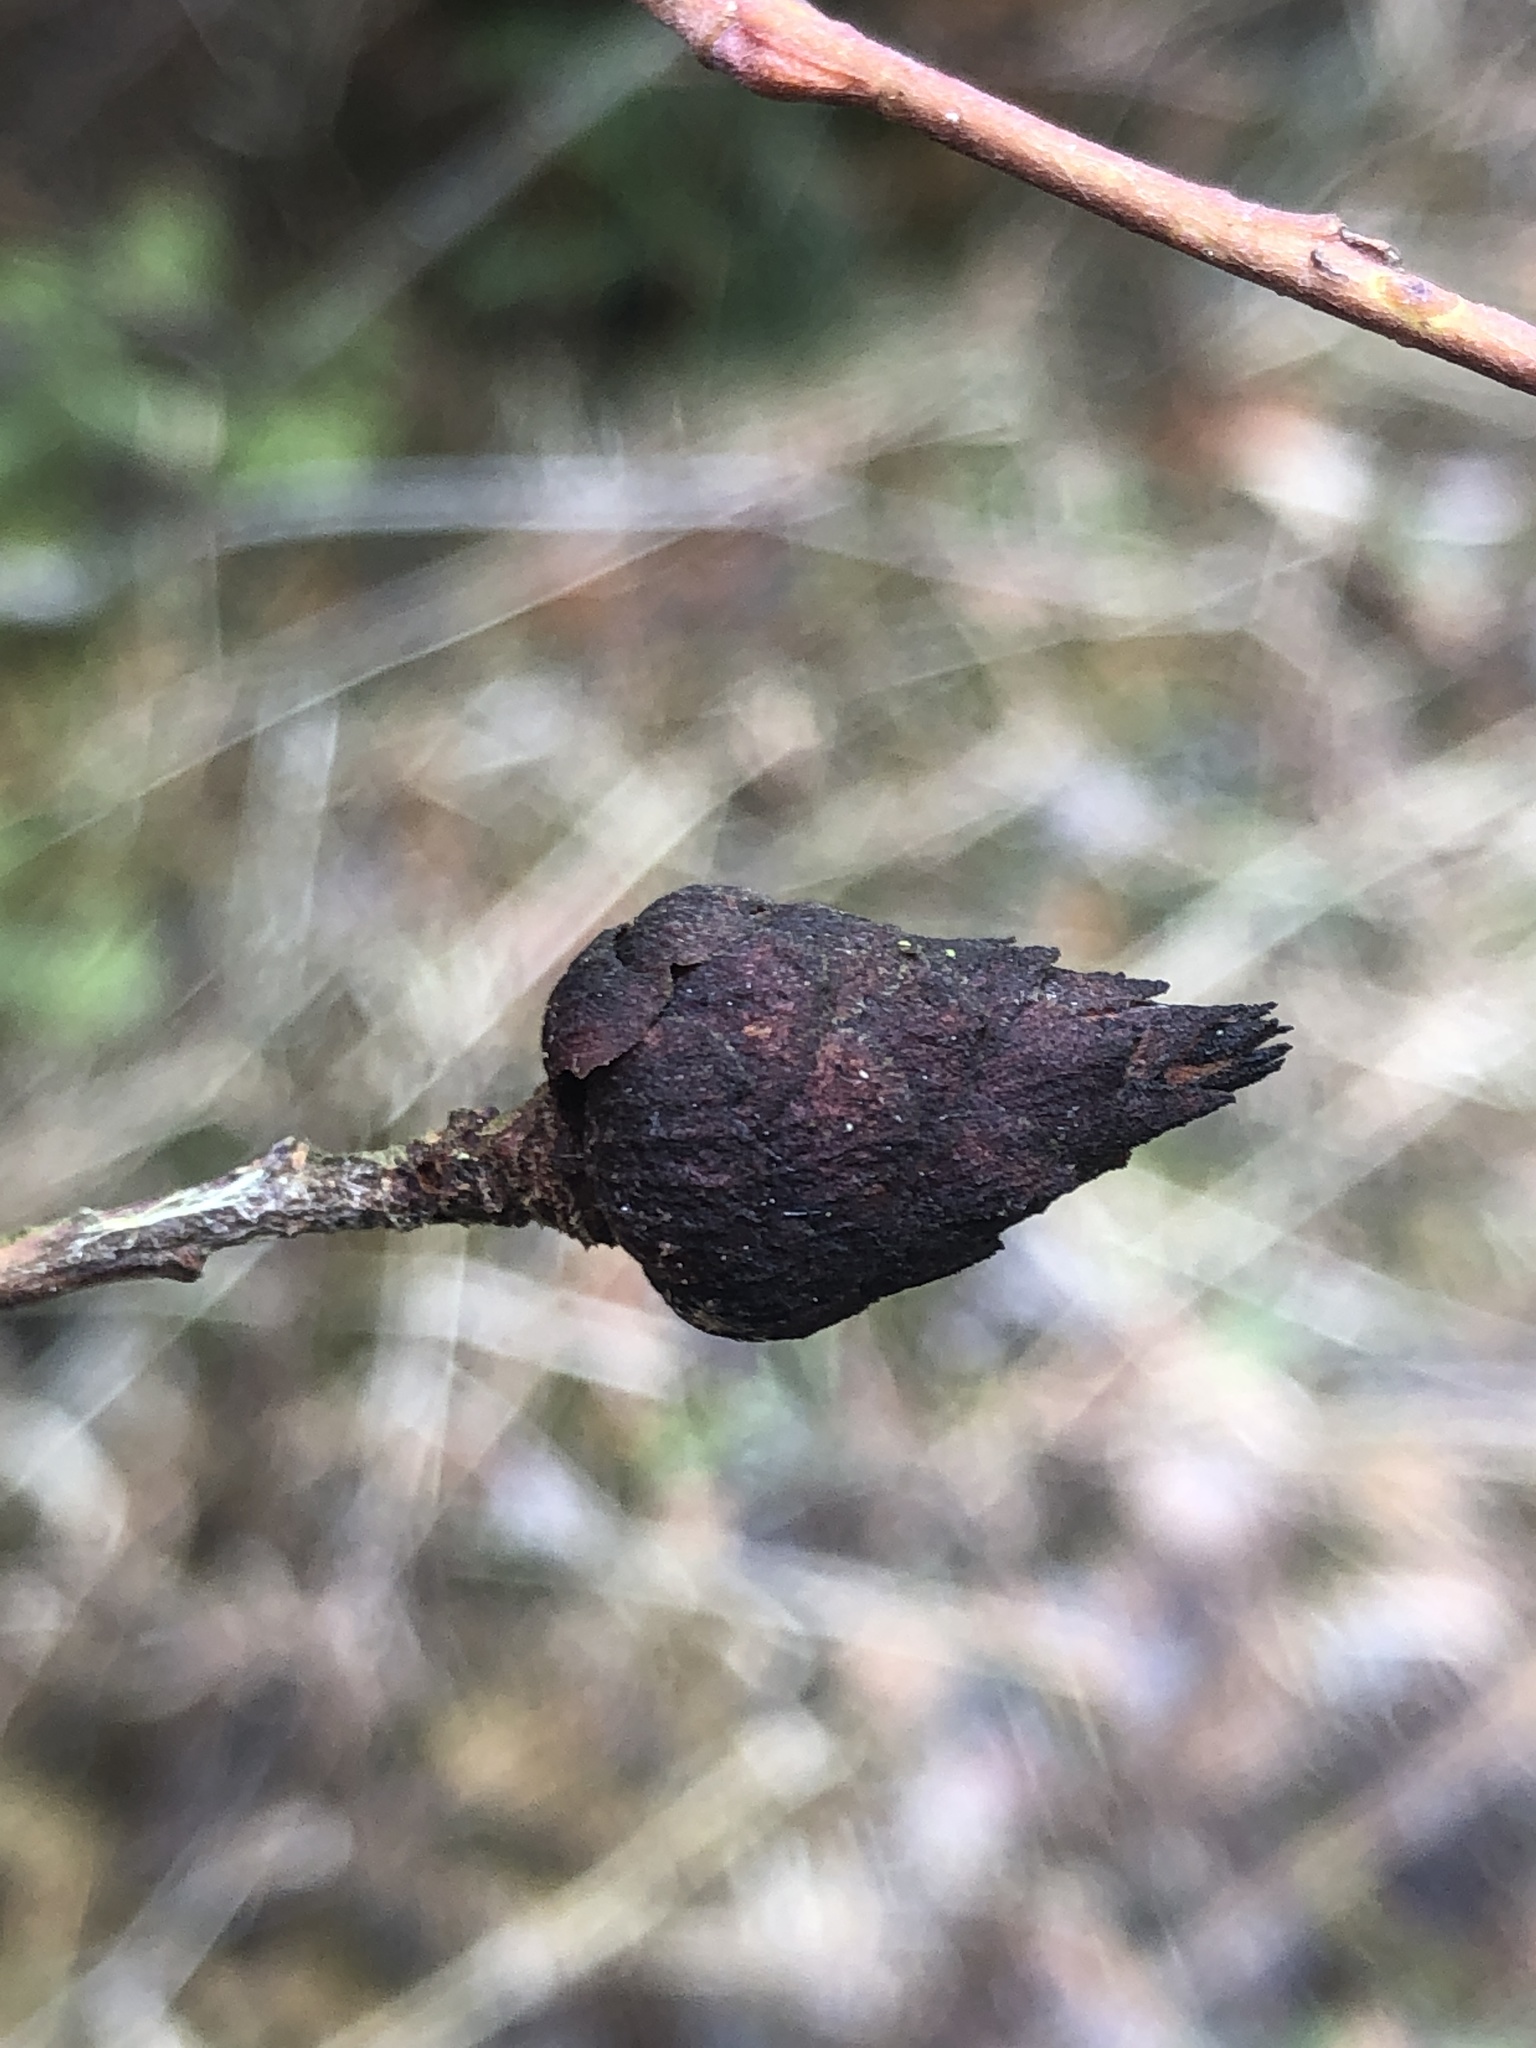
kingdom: Animalia
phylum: Arthropoda
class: Insecta
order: Diptera
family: Cecidomyiidae
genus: Rabdophaga
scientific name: Rabdophaga strobiloides
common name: Willow pinecone gall midge
